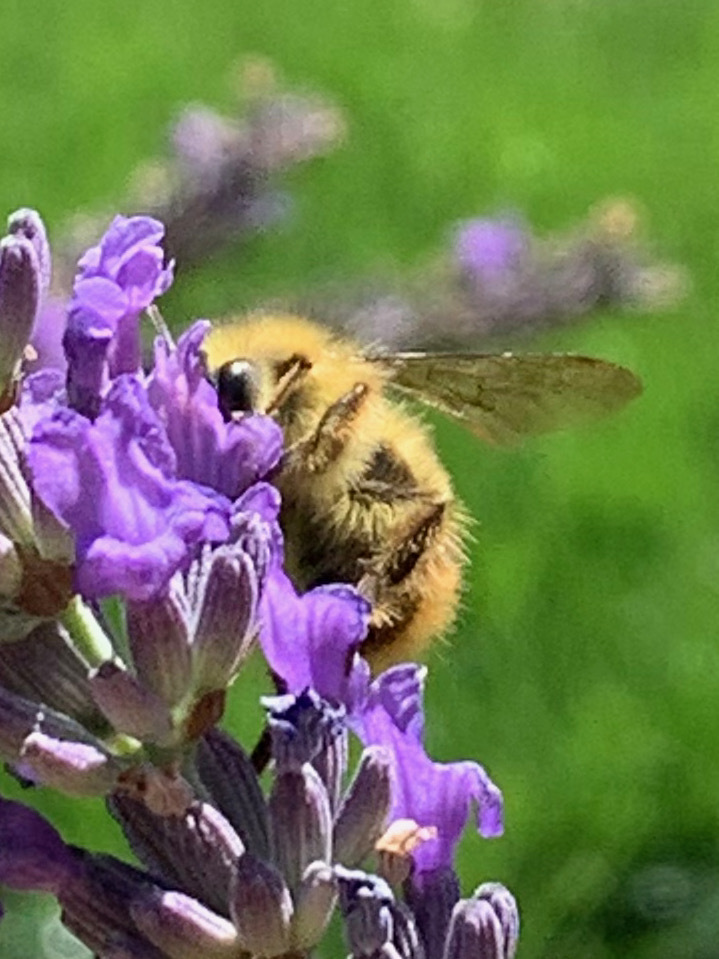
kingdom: Animalia
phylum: Arthropoda
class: Insecta
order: Hymenoptera
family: Apidae
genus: Bombus
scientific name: Bombus mixtus
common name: Fuzzy-horned bumble bee
